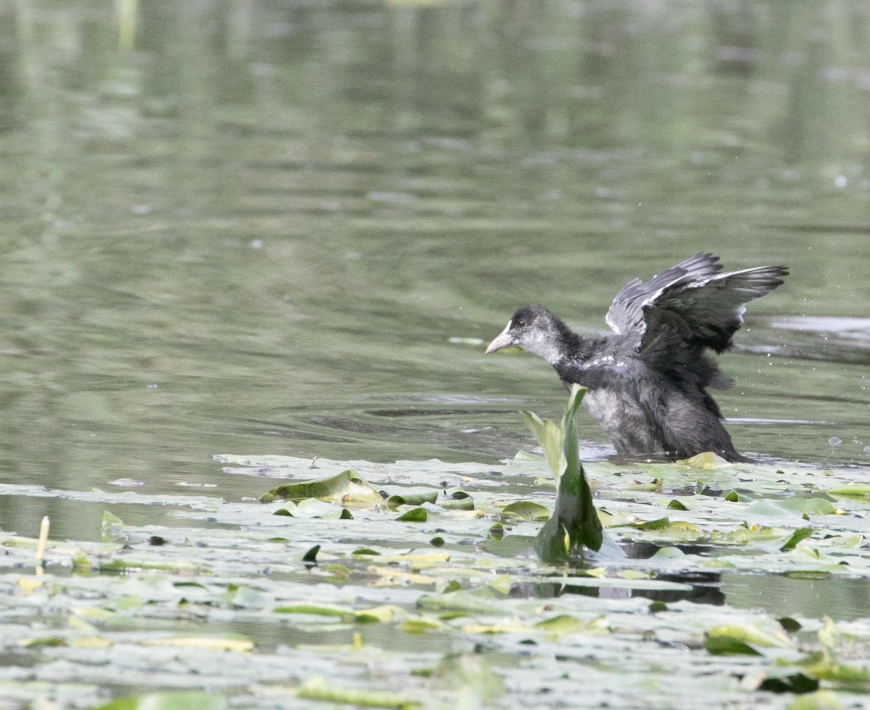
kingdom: Animalia
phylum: Chordata
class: Aves
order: Gruiformes
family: Rallidae
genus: Fulica
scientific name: Fulica atra
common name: Eurasian coot
